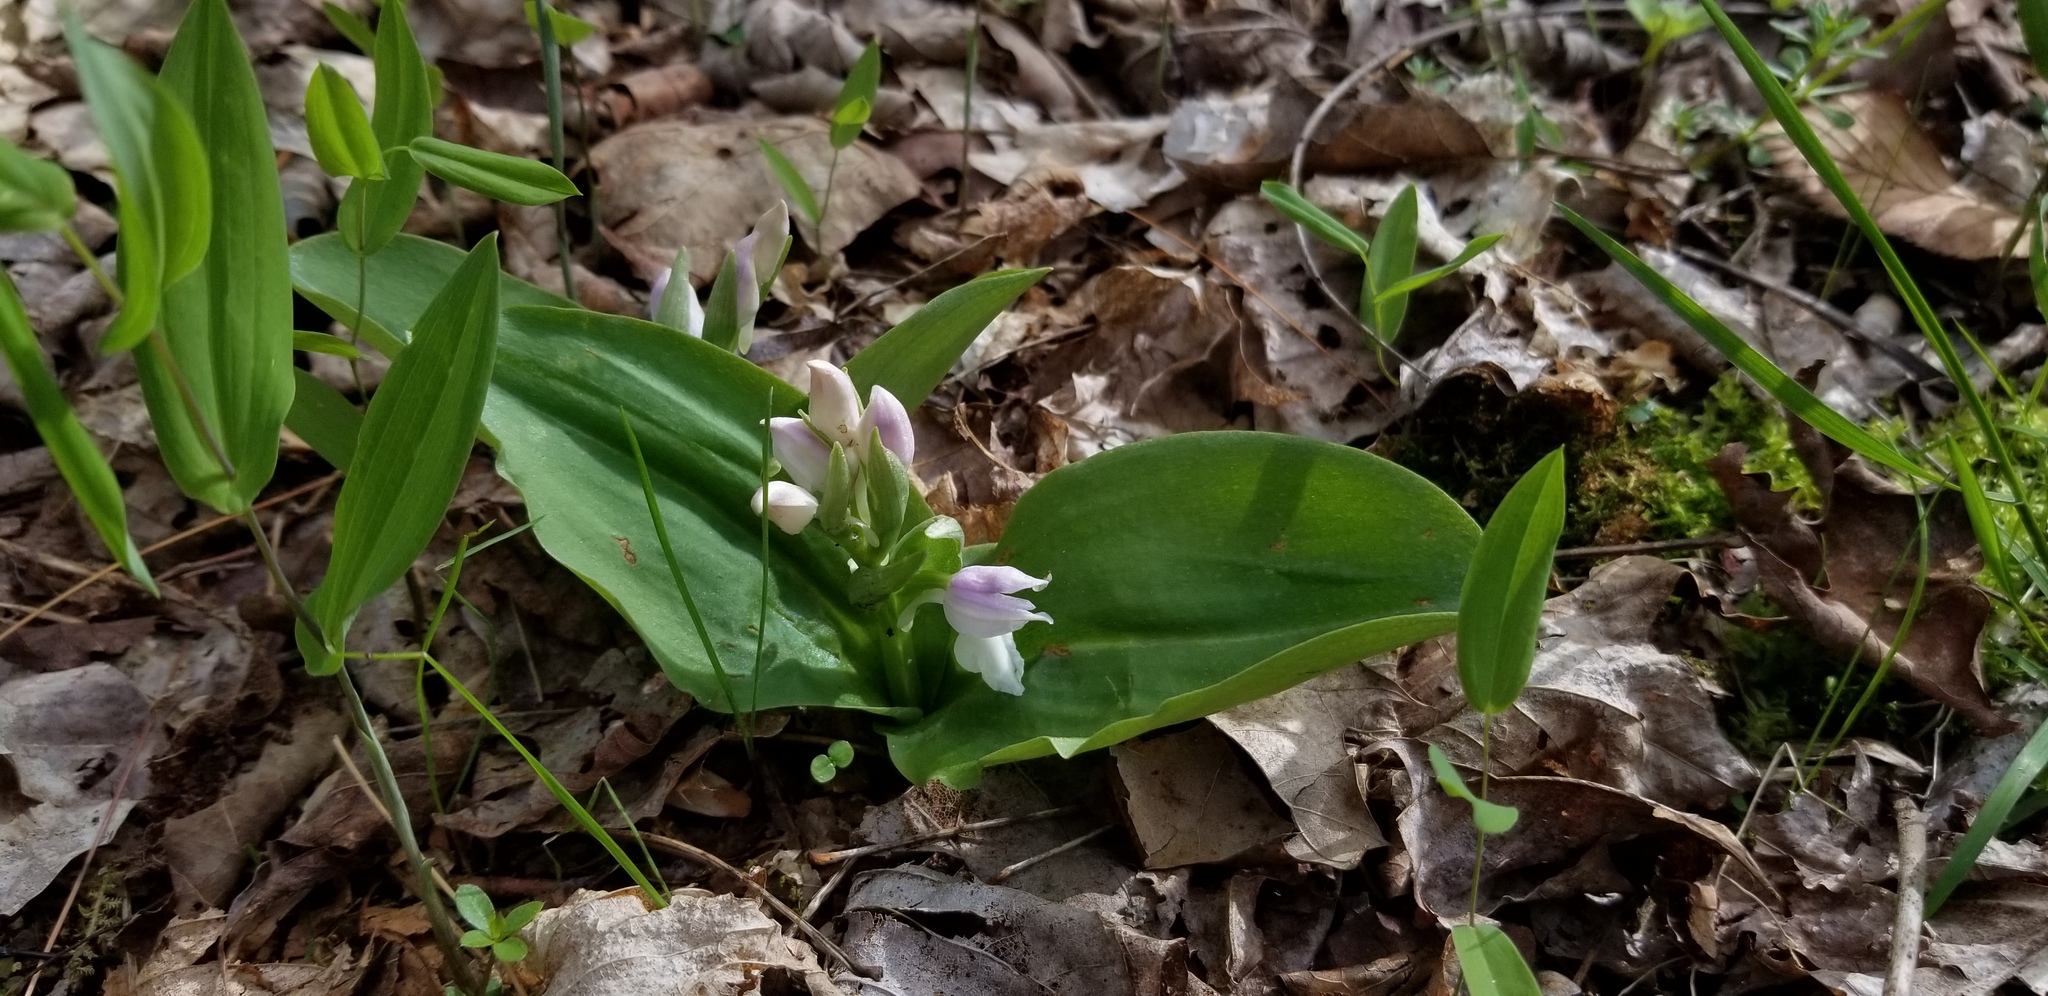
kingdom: Plantae
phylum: Tracheophyta
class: Liliopsida
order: Asparagales
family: Orchidaceae
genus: Galearis
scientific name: Galearis spectabilis
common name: Purple-hooded orchis
